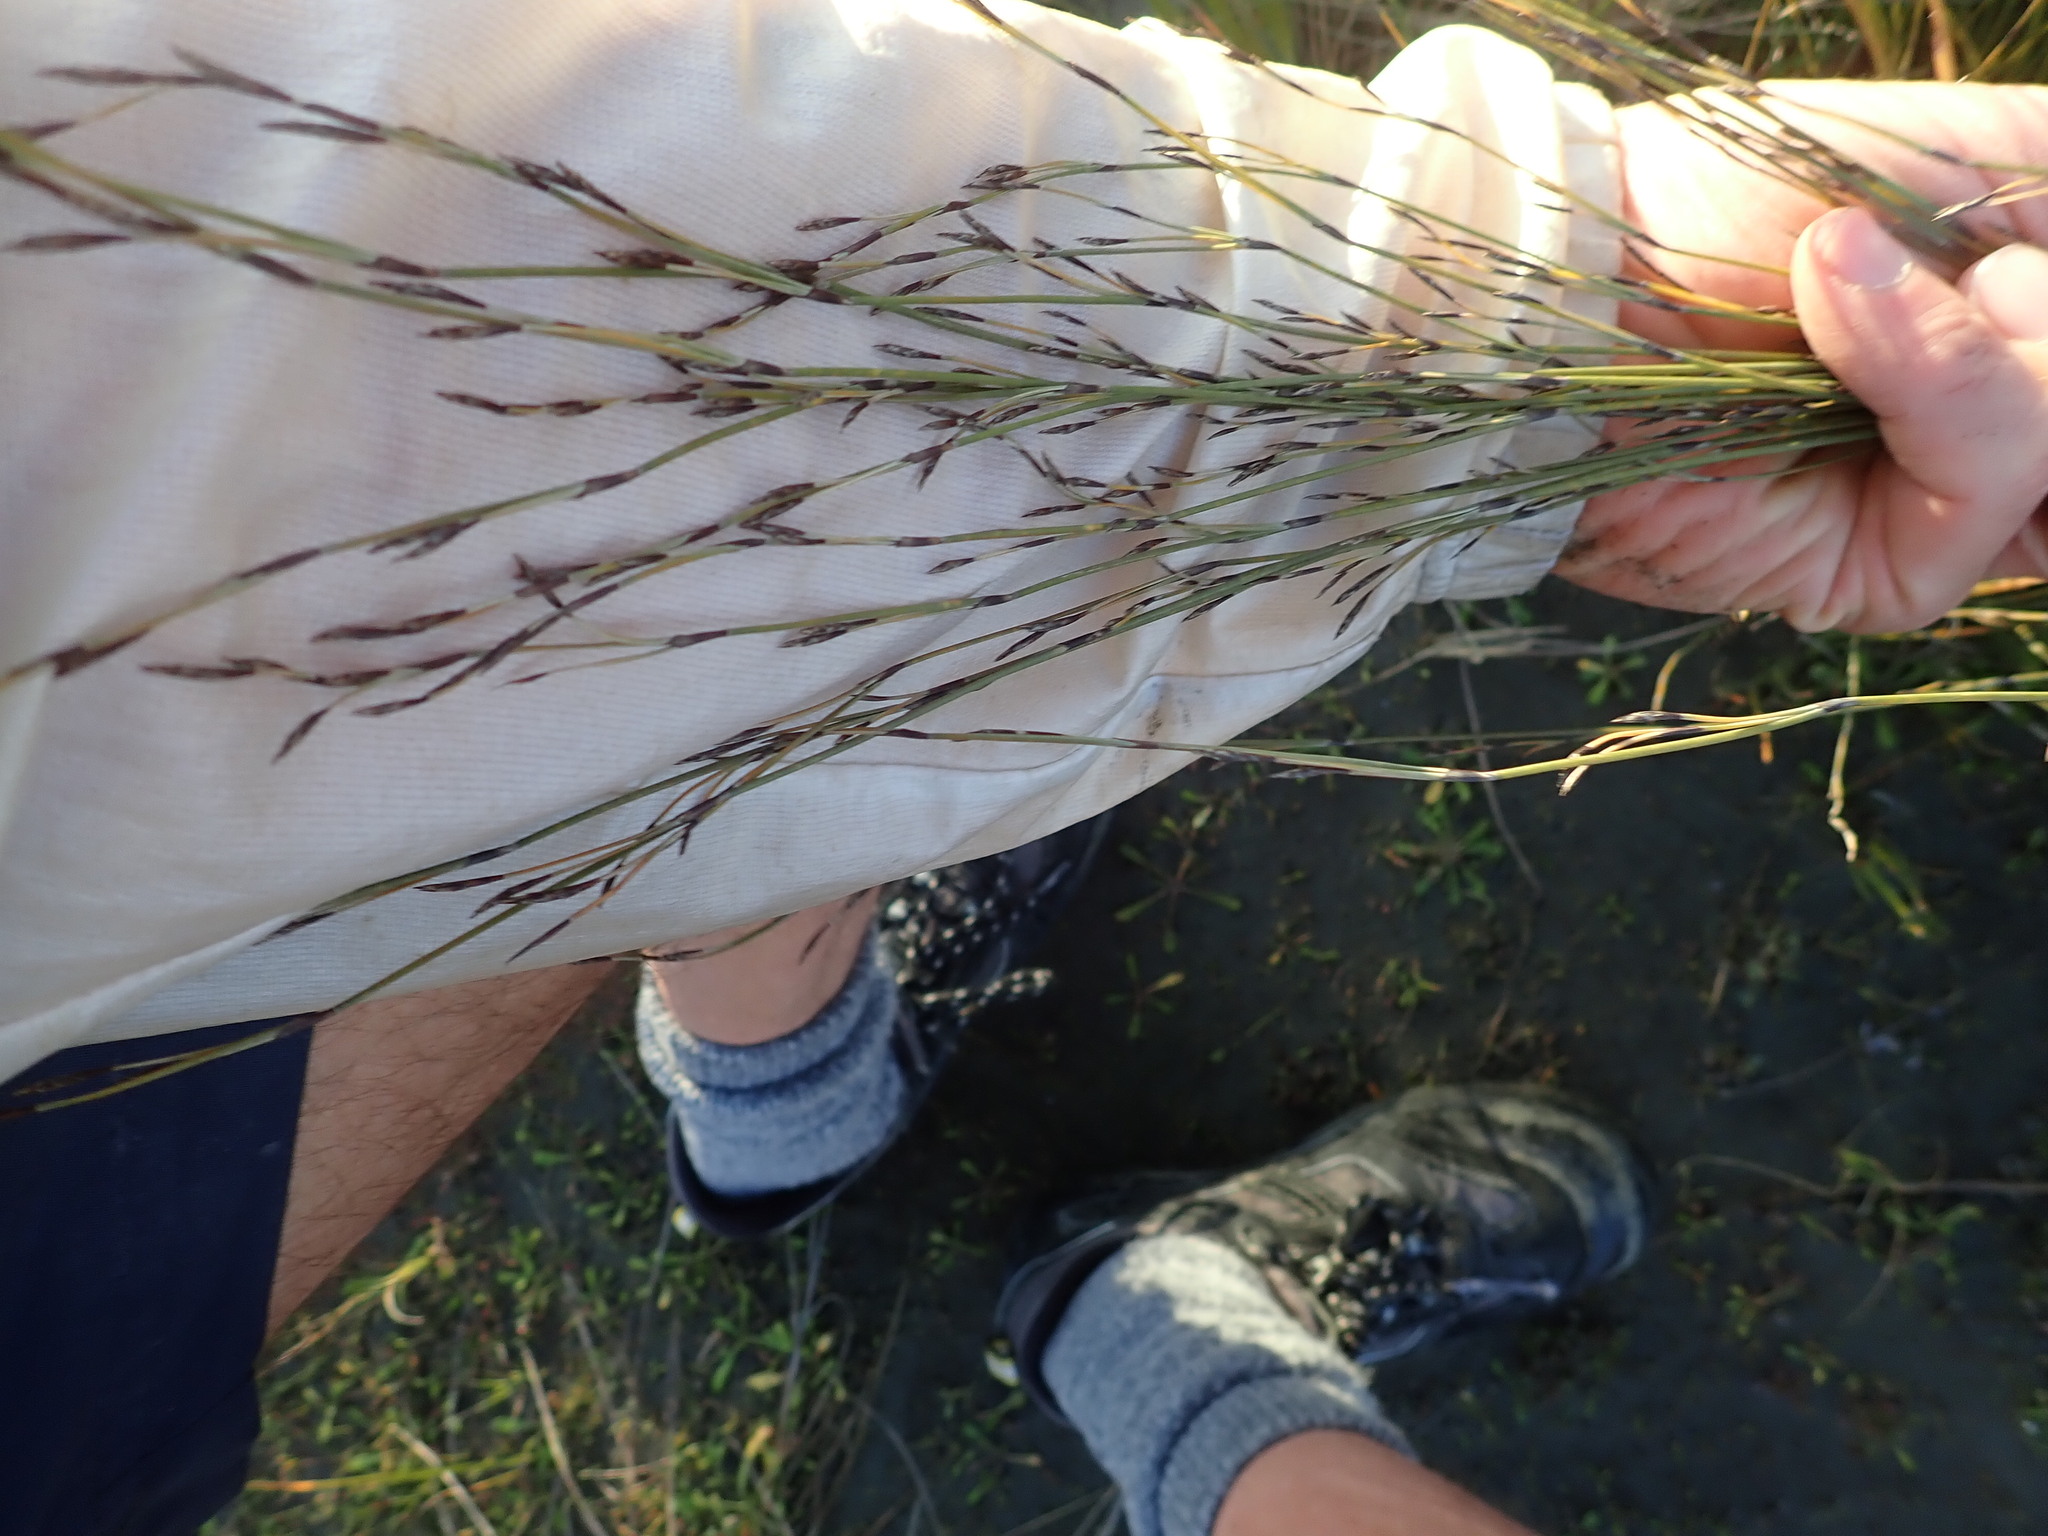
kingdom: Plantae
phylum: Tracheophyta
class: Liliopsida
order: Poales
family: Restionaceae
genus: Apodasmia
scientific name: Apodasmia similis
